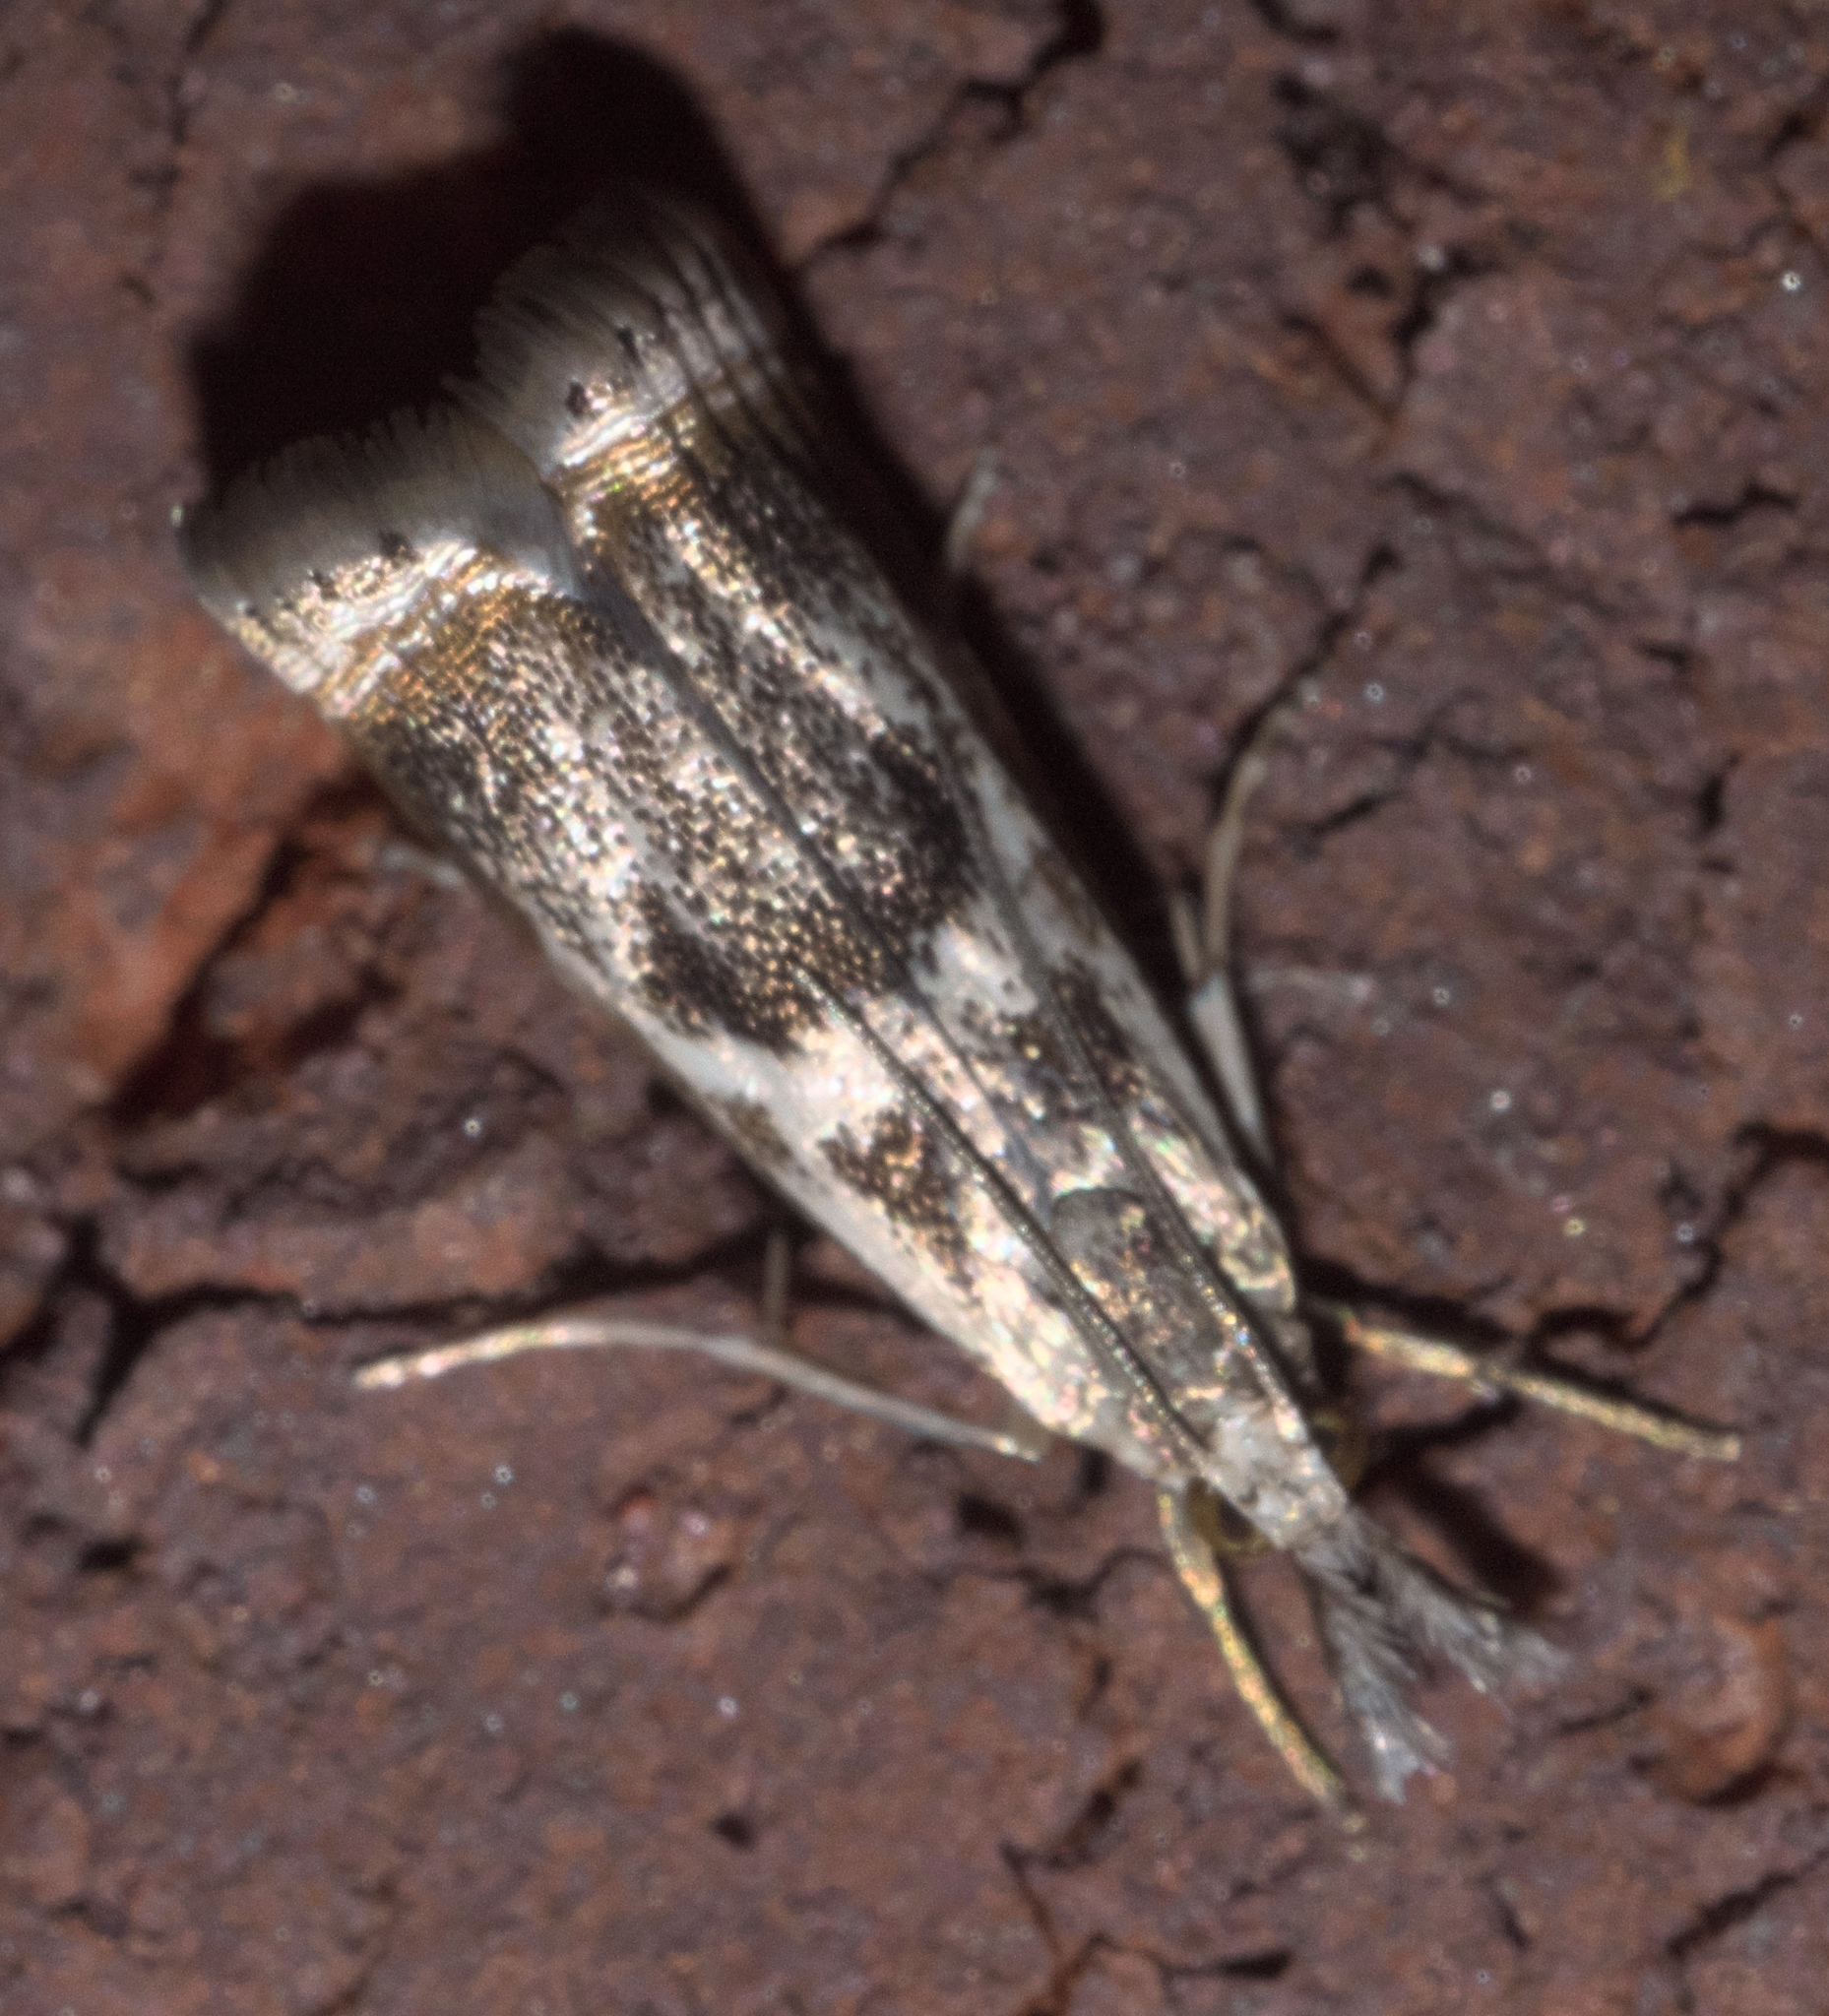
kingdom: Animalia
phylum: Arthropoda
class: Insecta
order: Lepidoptera
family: Crambidae
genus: Microcrambus
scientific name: Microcrambus elegans
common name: Elegant grass-veneer
